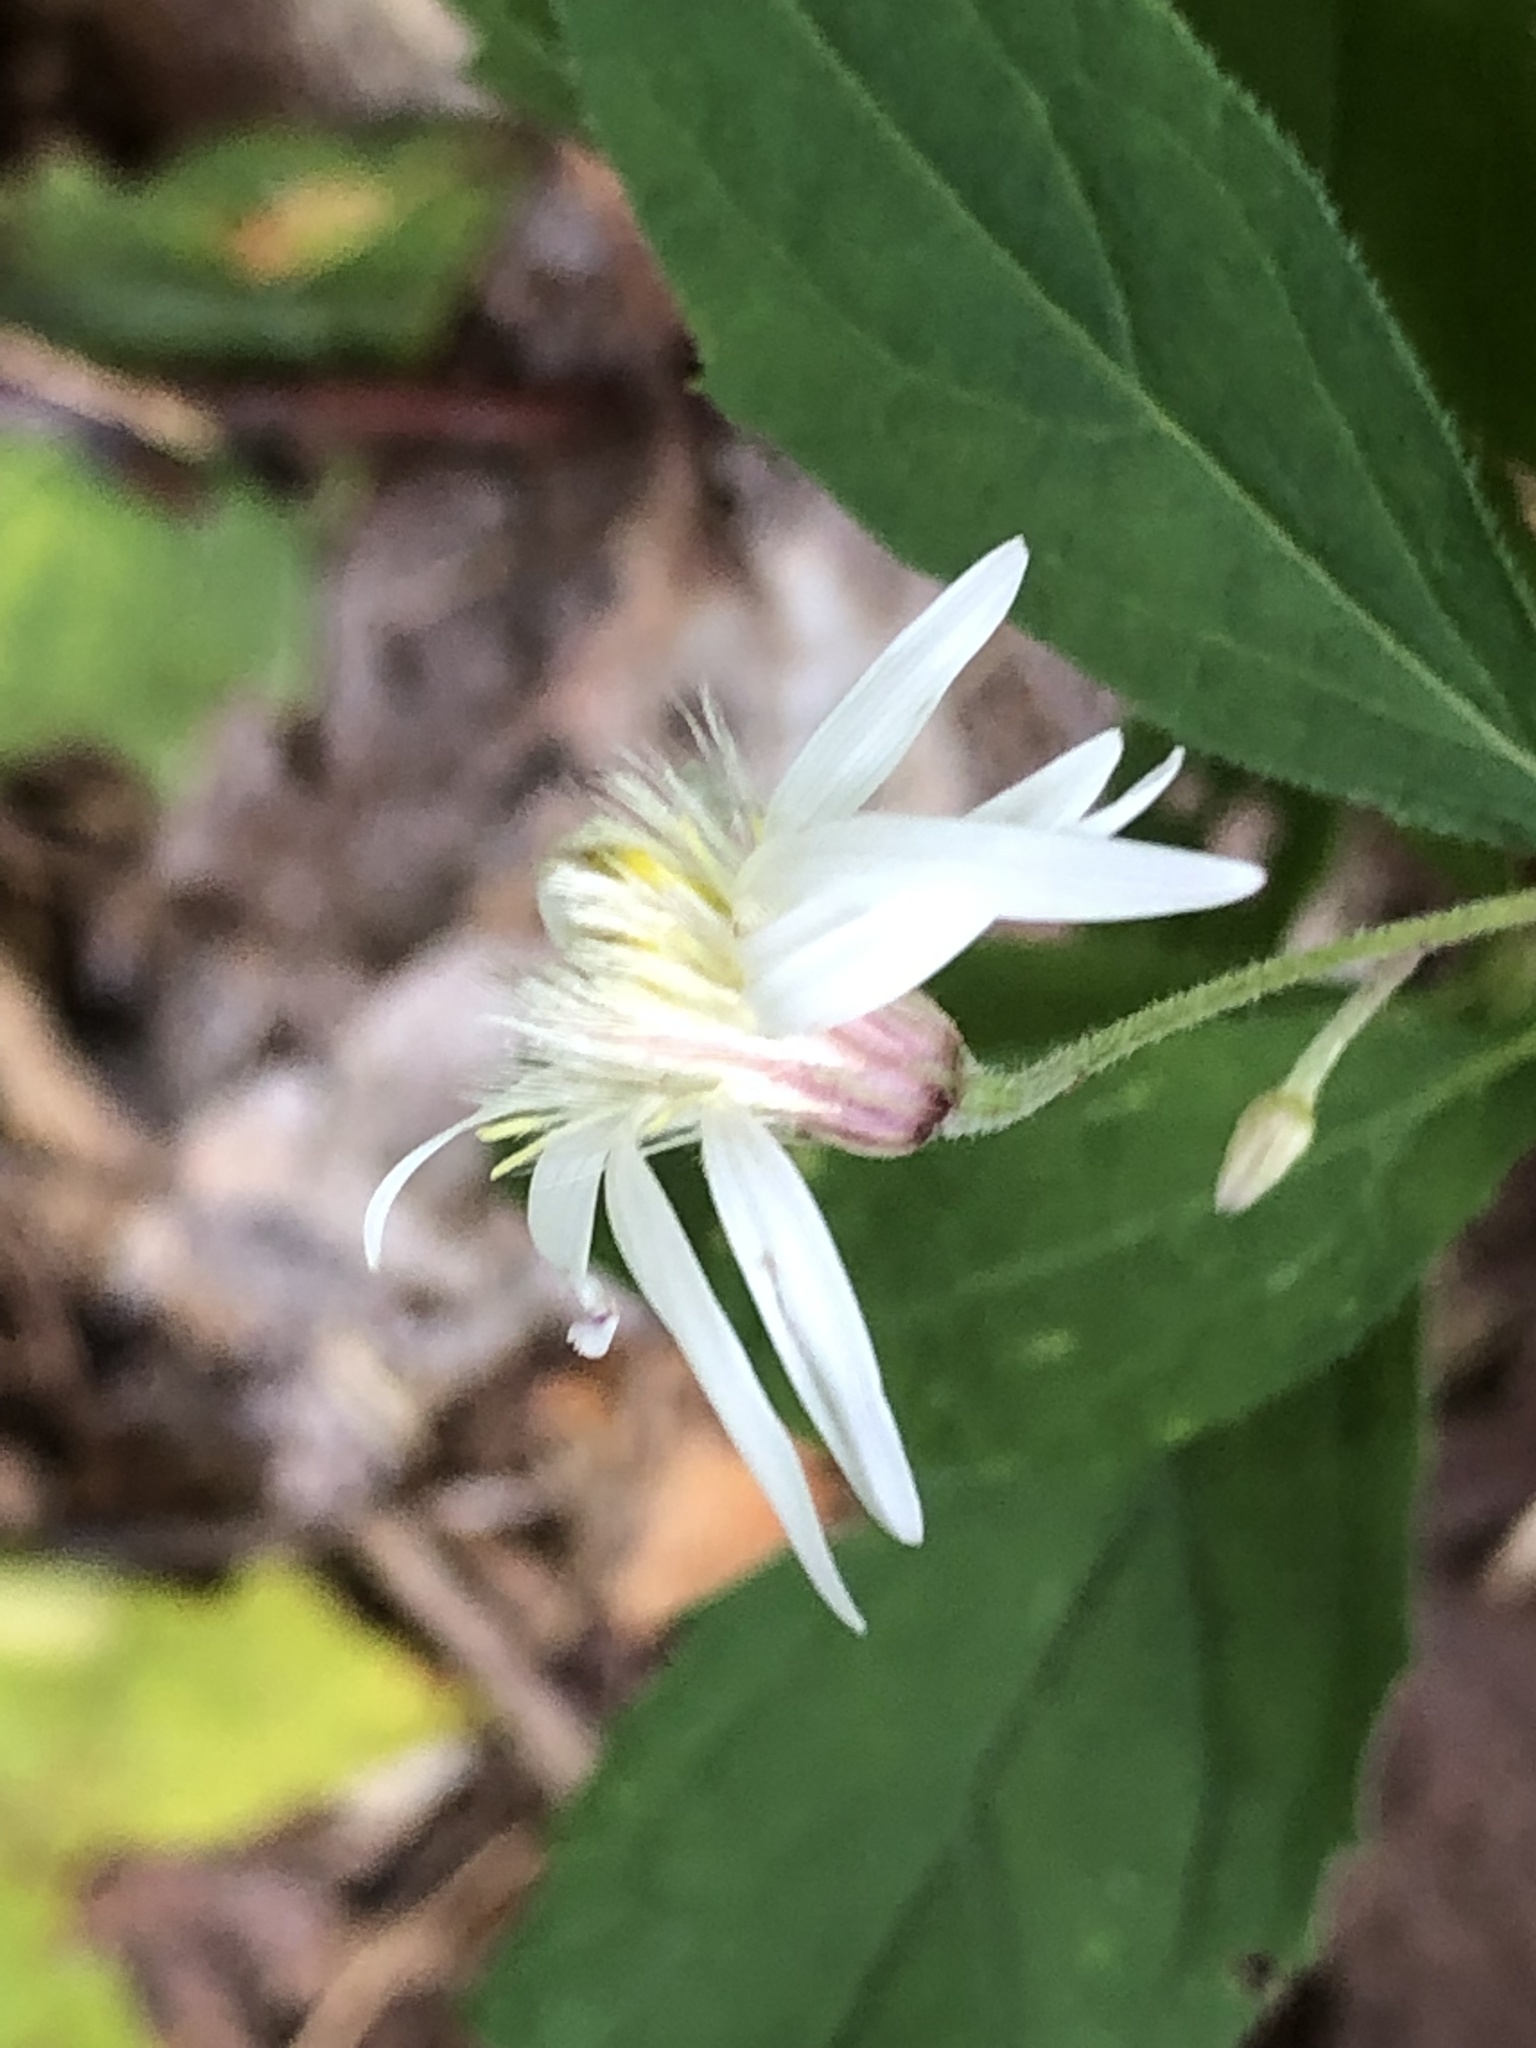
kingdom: Plantae
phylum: Tracheophyta
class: Magnoliopsida
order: Asterales
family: Asteraceae
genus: Oclemena
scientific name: Oclemena acuminata
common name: Mountain aster
